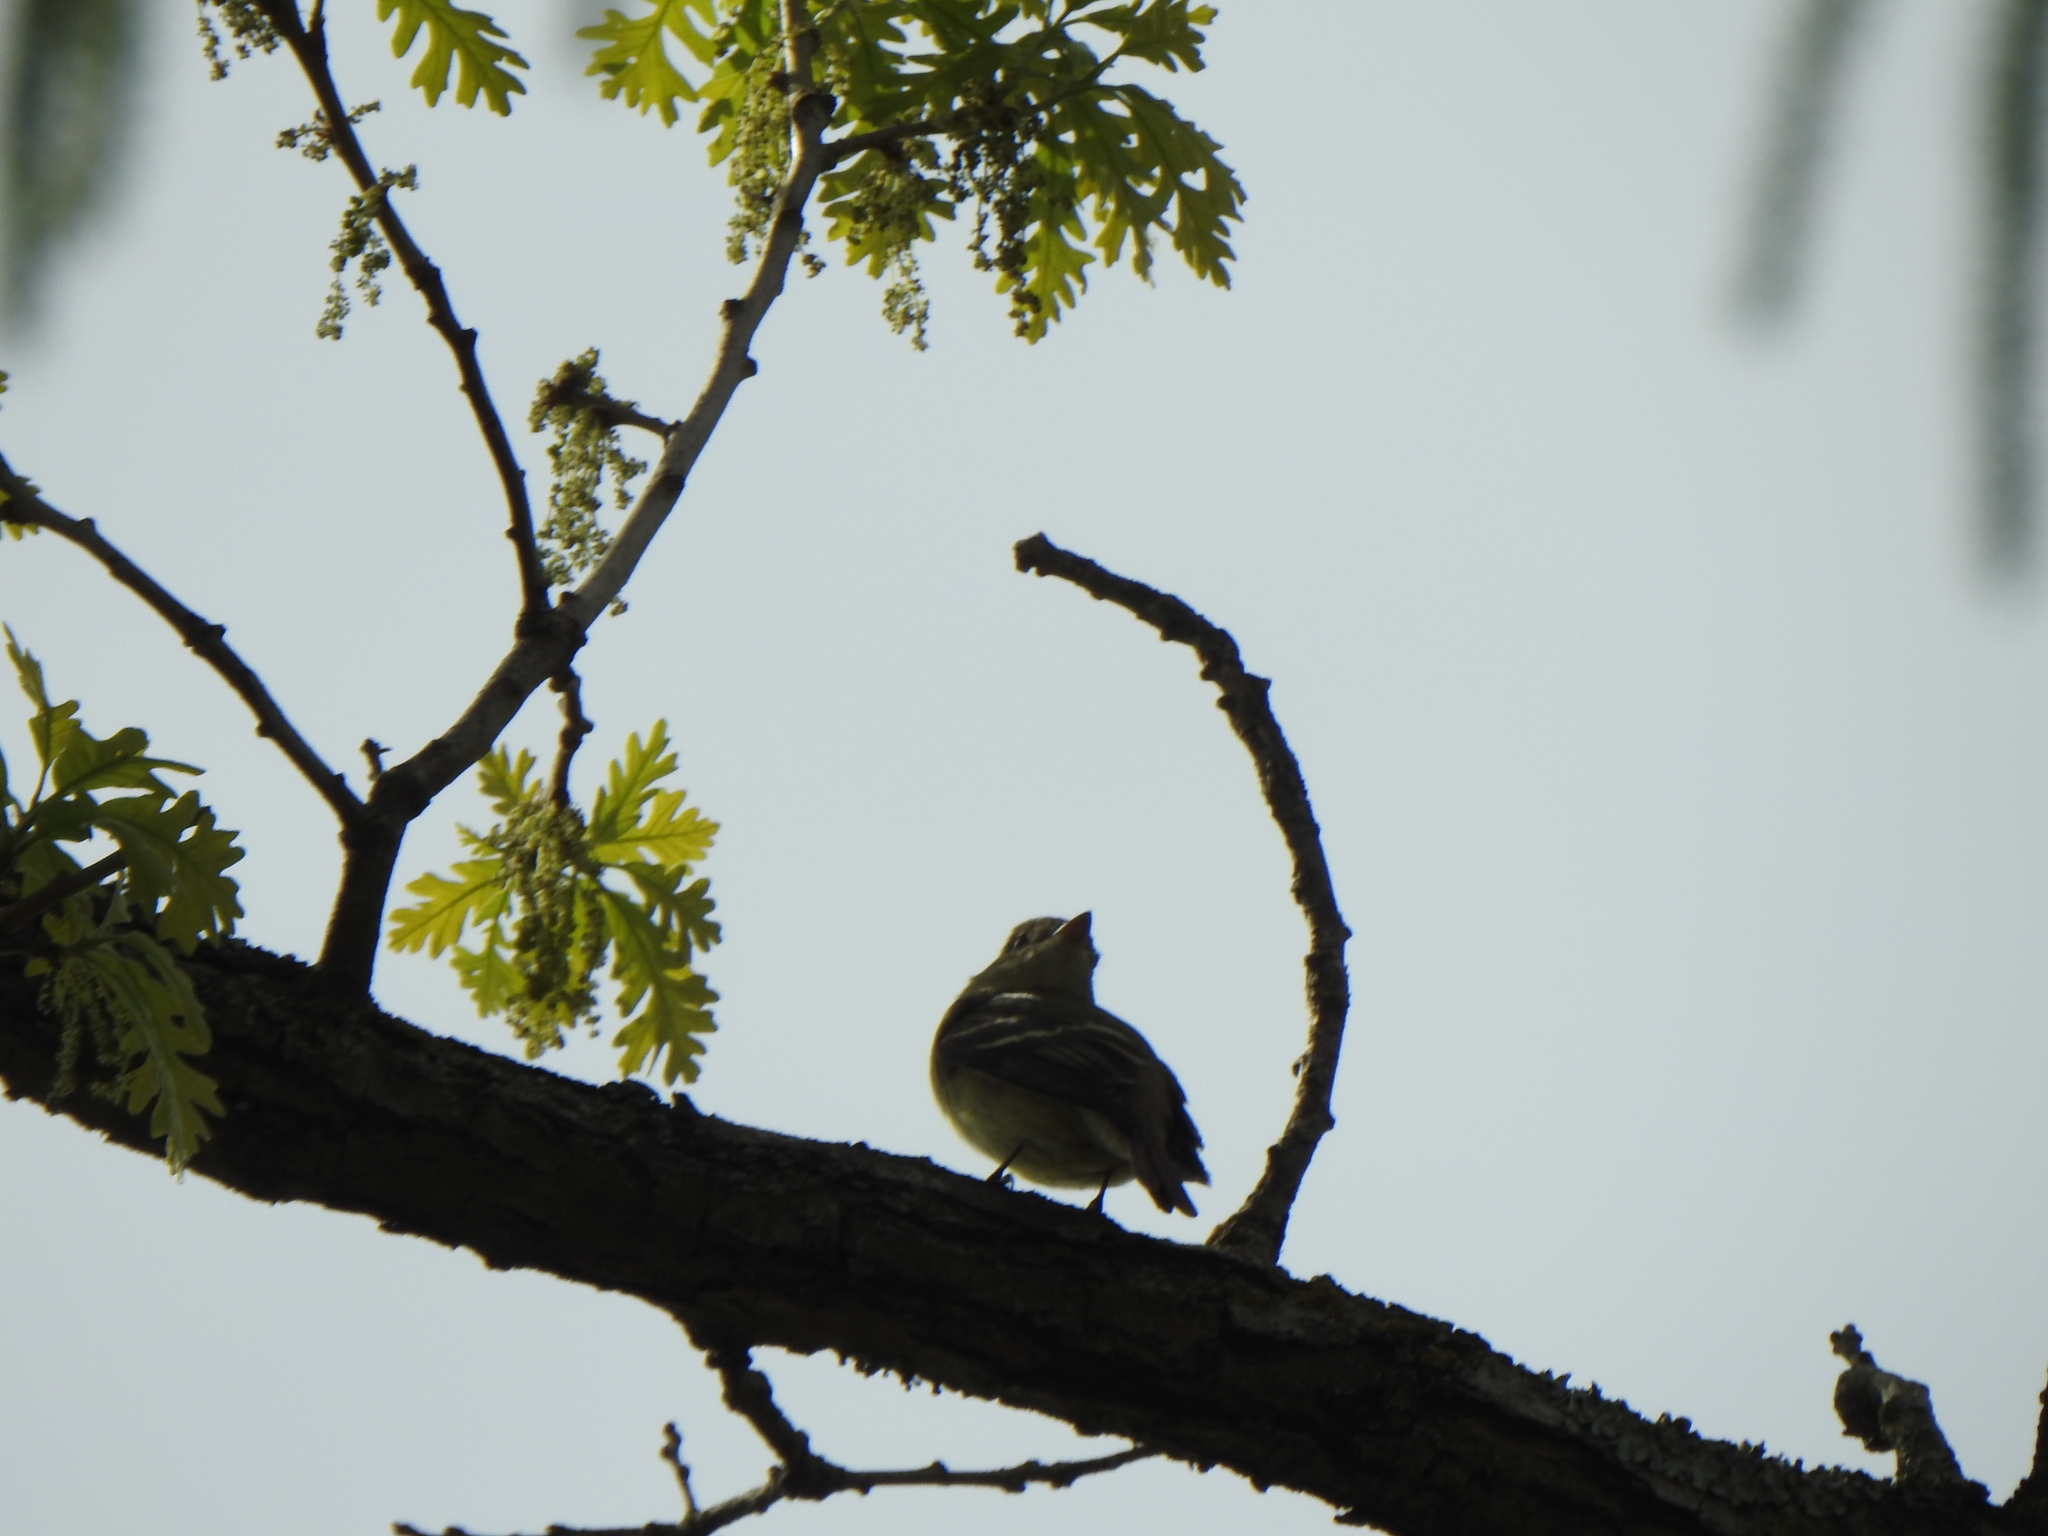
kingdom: Animalia
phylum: Chordata
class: Aves
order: Passeriformes
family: Tyrannidae
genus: Contopus
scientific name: Contopus virens
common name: Eastern wood-pewee
